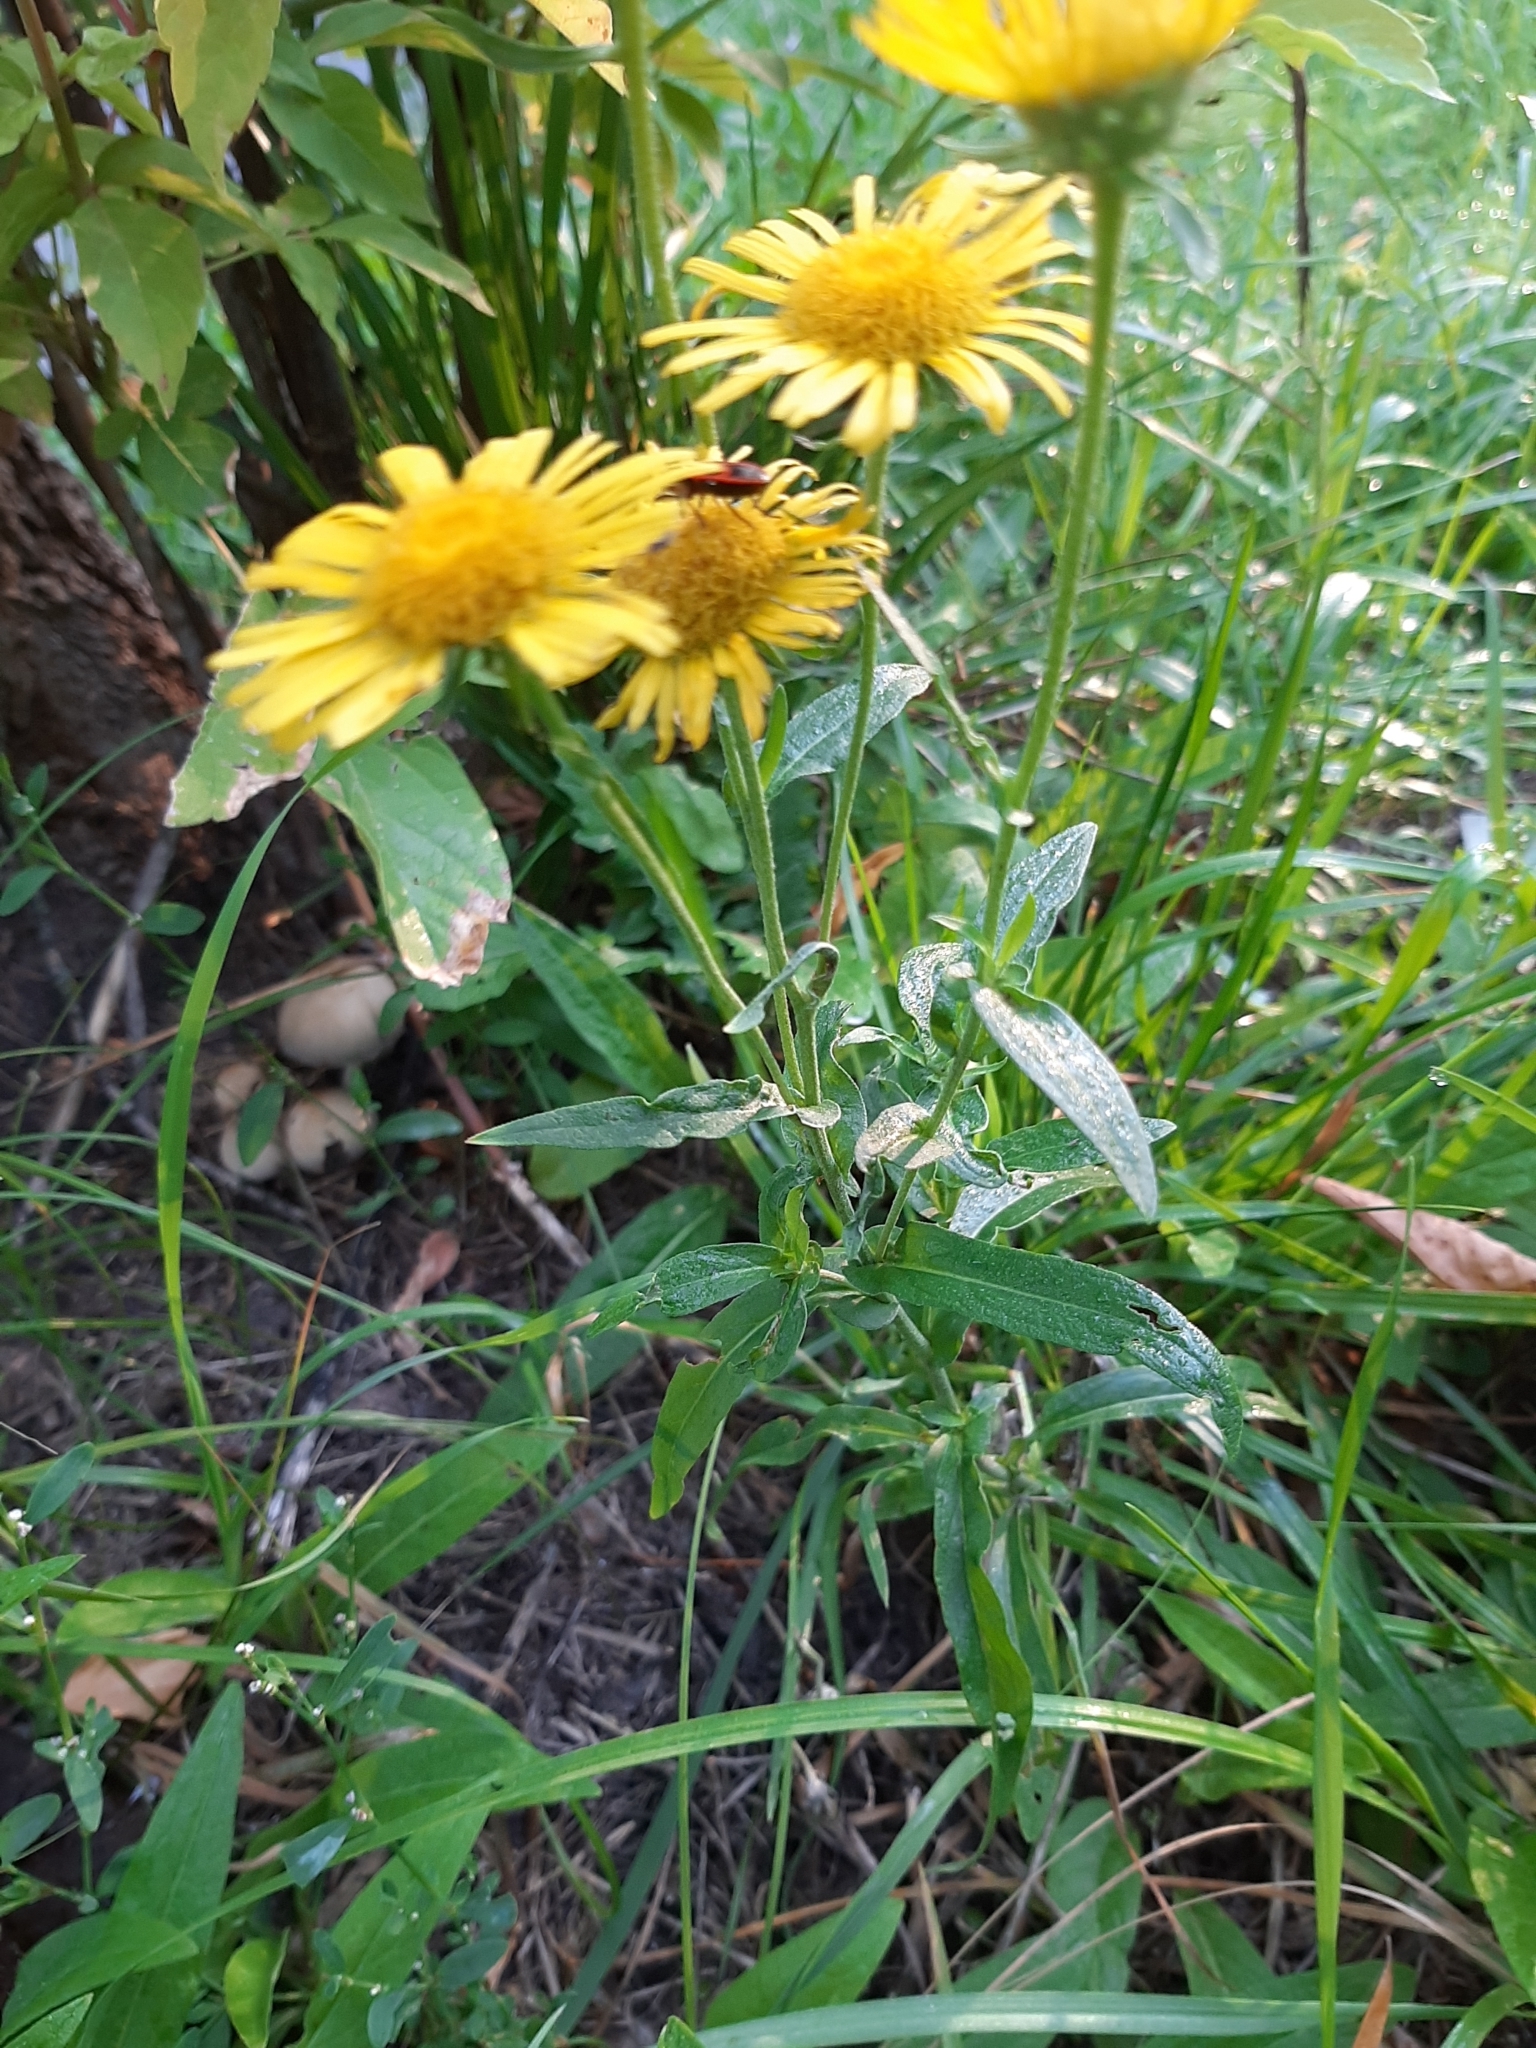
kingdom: Plantae
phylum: Tracheophyta
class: Magnoliopsida
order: Asterales
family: Asteraceae
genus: Pentanema
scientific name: Pentanema britannicum
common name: British elecampane
